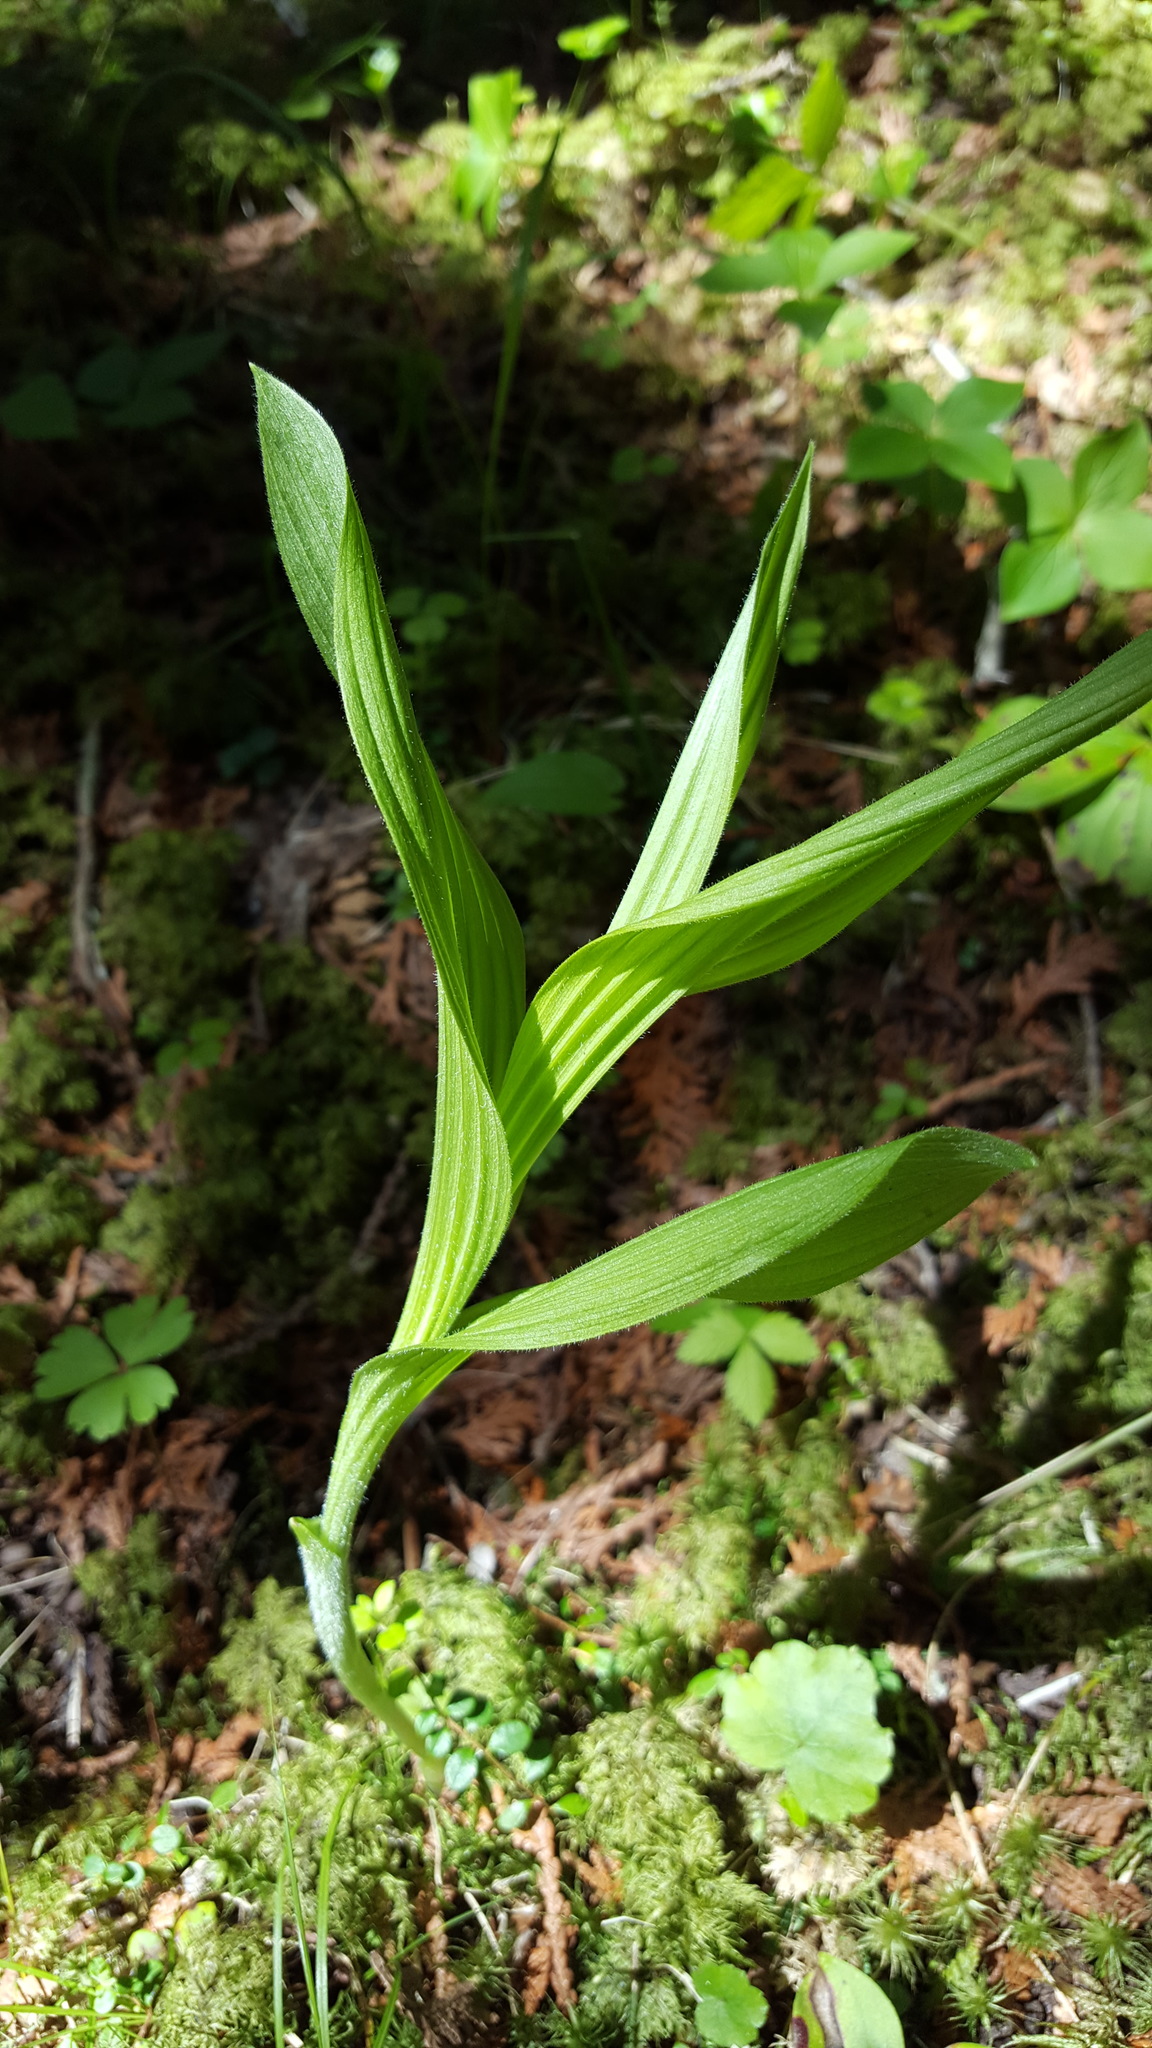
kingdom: Plantae
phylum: Tracheophyta
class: Liliopsida
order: Asparagales
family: Orchidaceae
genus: Cypripedium
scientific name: Cypripedium parviflorum
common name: American yellow lady's-slipper
